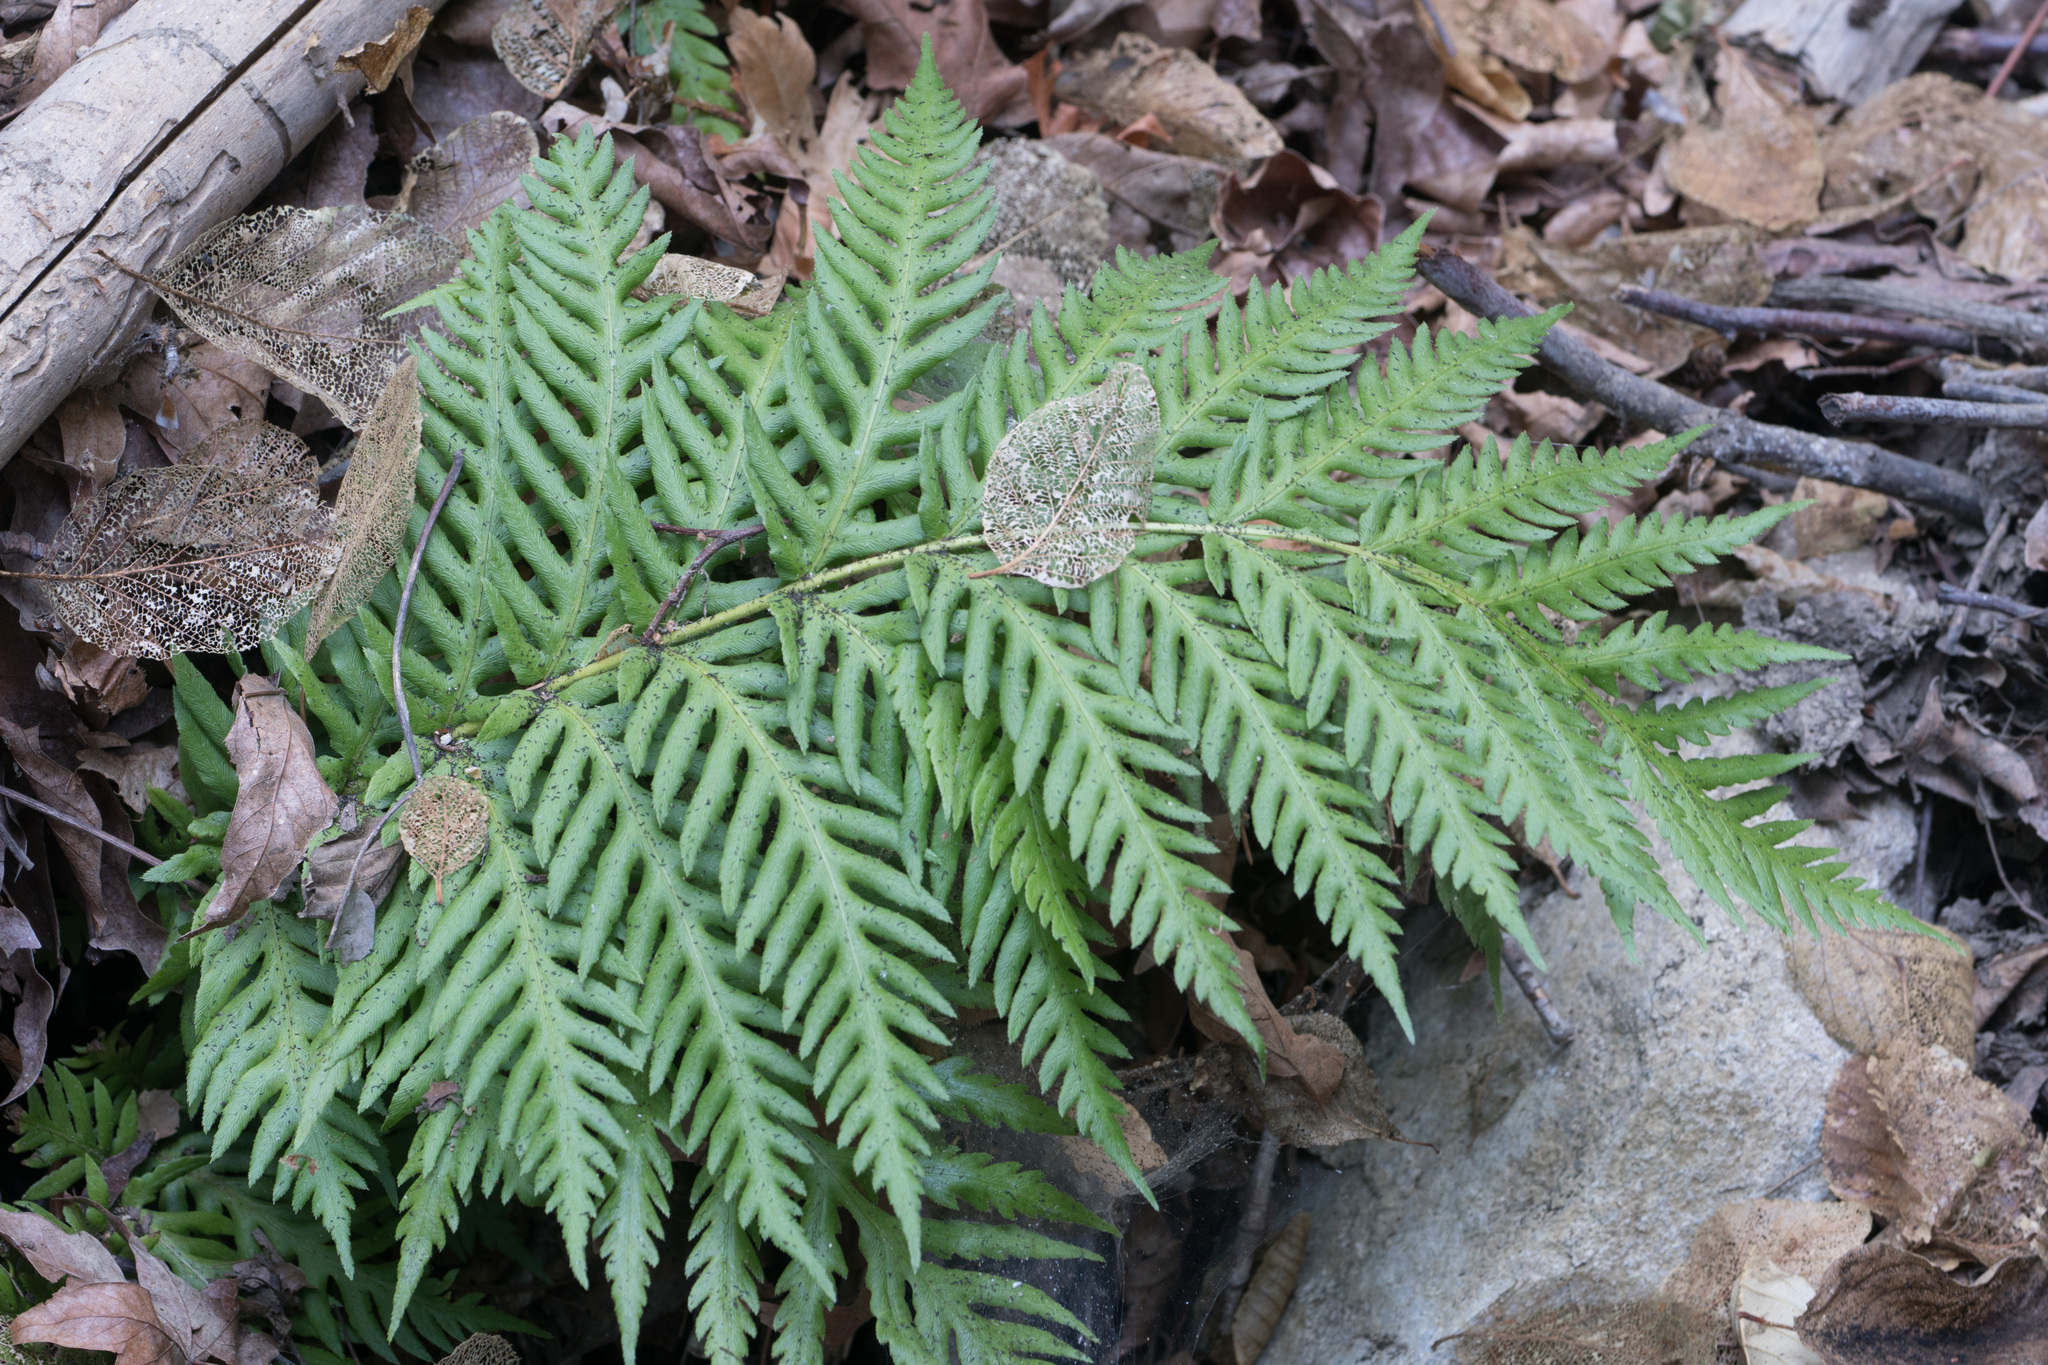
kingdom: Plantae
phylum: Tracheophyta
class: Polypodiopsida
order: Polypodiales
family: Blechnaceae
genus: Woodwardia
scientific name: Woodwardia fimbriata
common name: Giant chain fern
